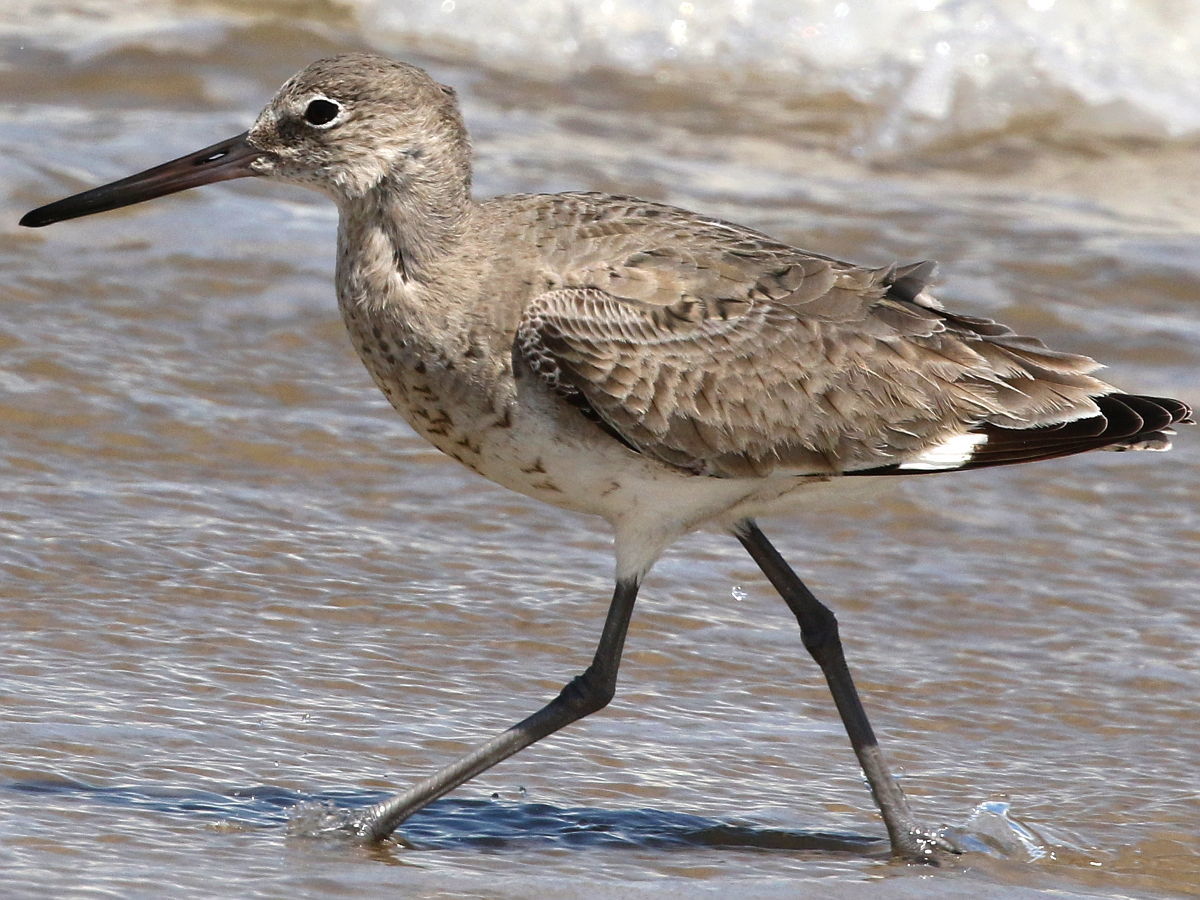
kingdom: Animalia
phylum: Chordata
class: Aves
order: Charadriiformes
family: Scolopacidae
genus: Tringa
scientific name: Tringa semipalmata
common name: Willet
